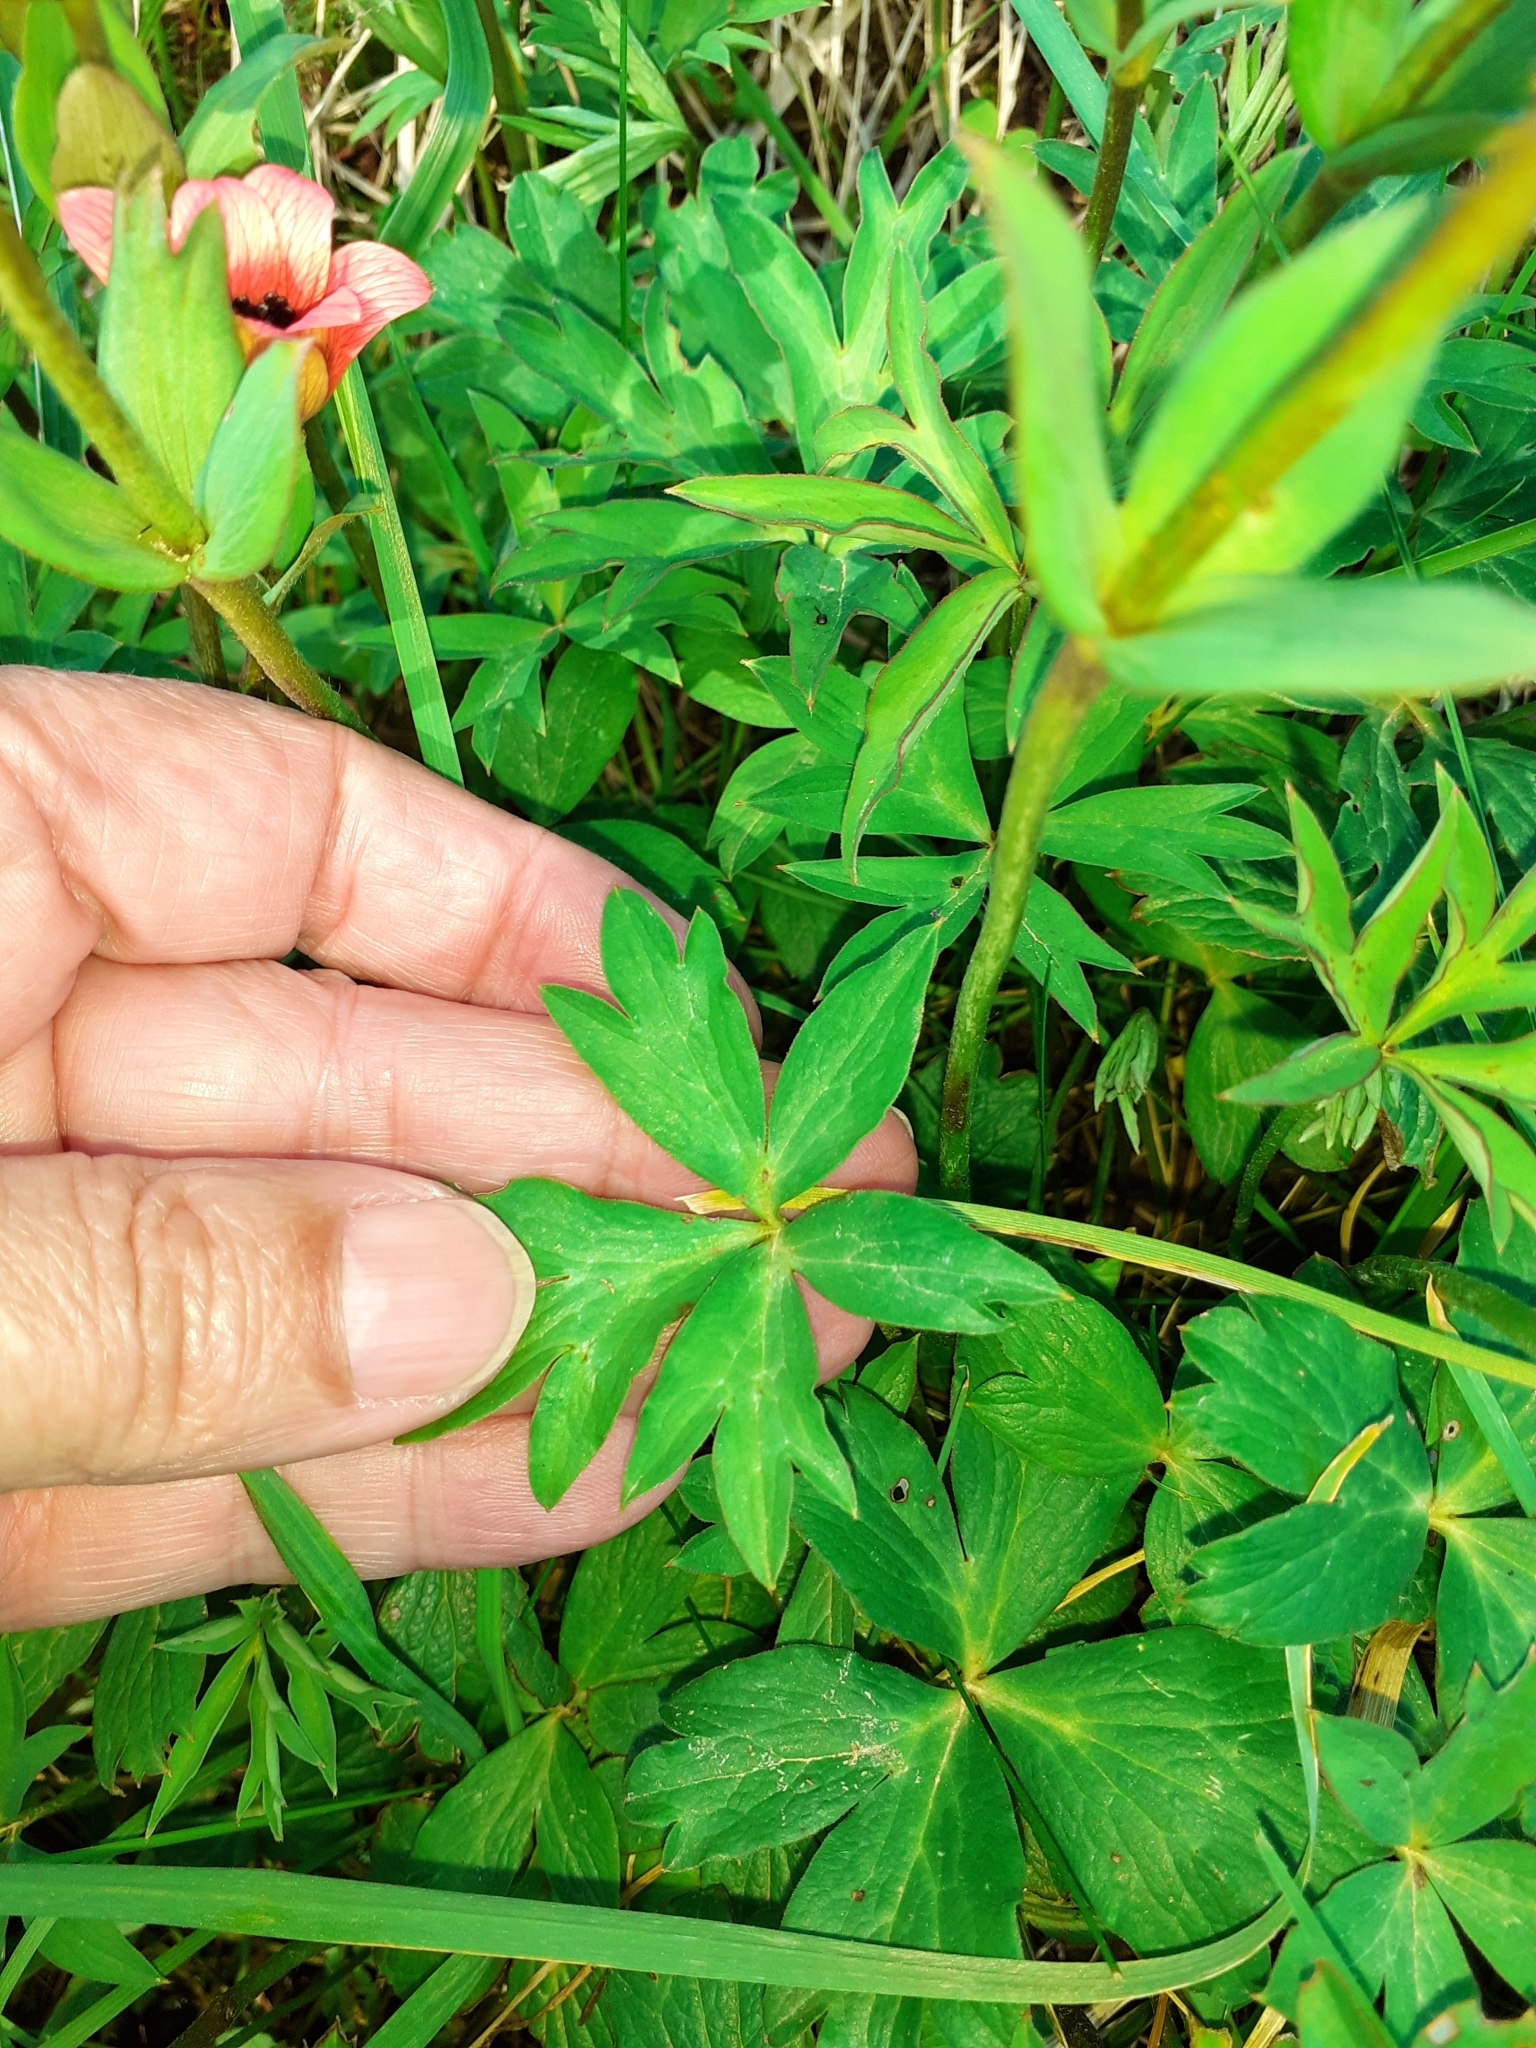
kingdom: Plantae
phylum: Tracheophyta
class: Magnoliopsida
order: Ranunculales
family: Ranunculaceae
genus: Anemone
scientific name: Anemone pavonina
